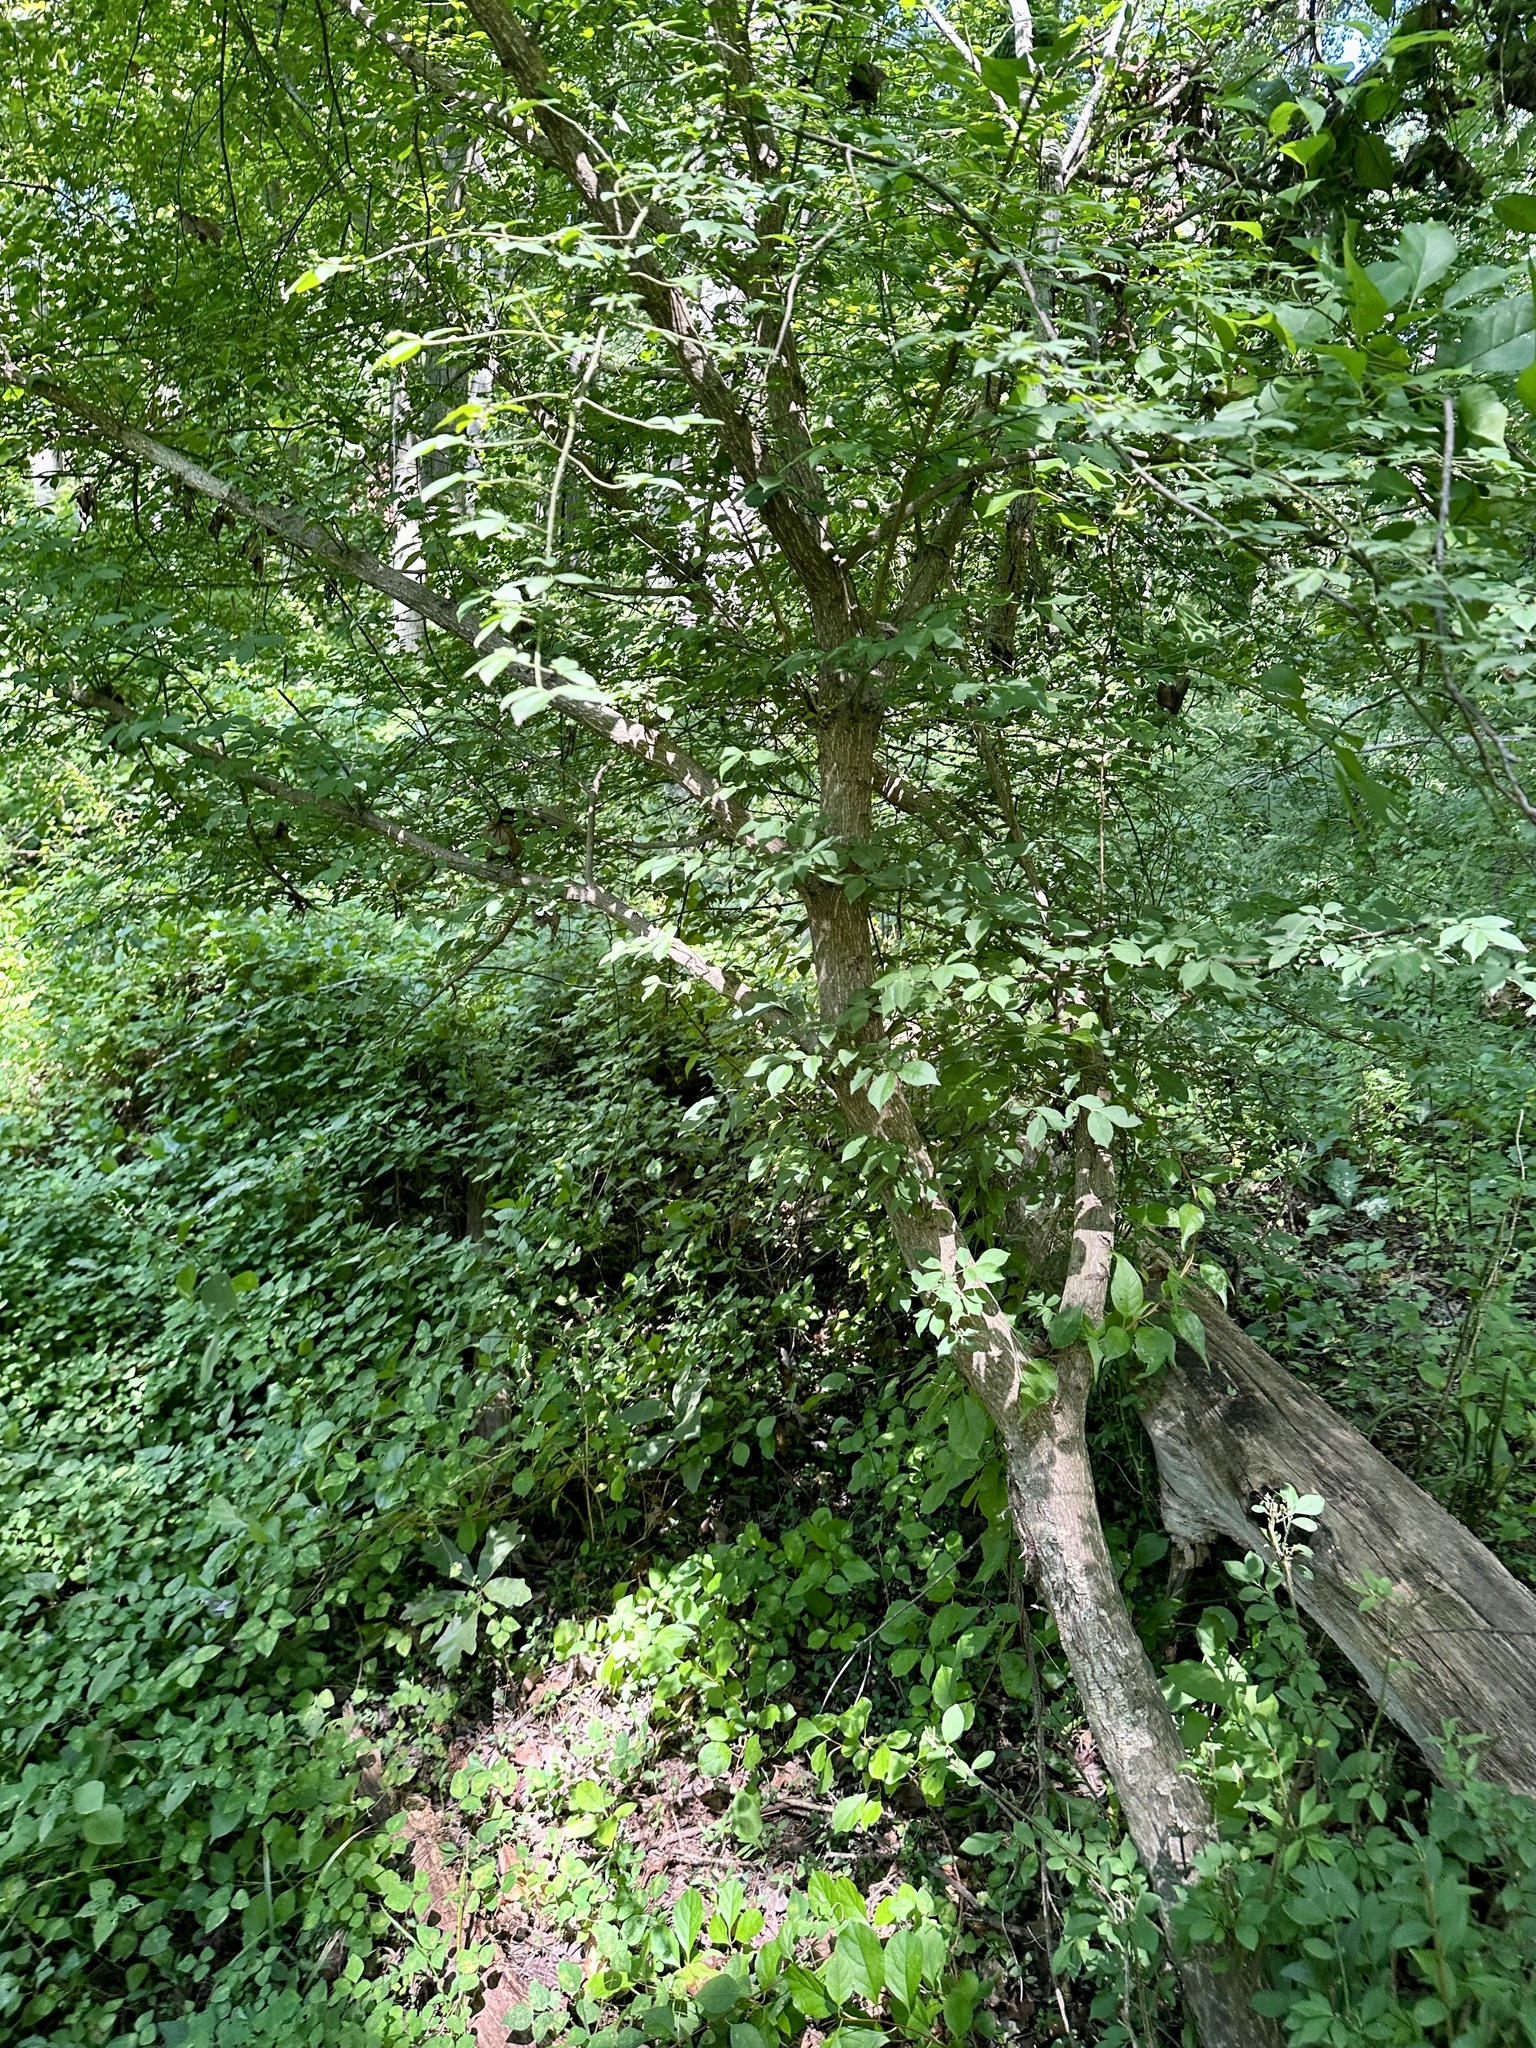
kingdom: Plantae
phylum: Tracheophyta
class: Magnoliopsida
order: Celastrales
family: Celastraceae
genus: Euonymus
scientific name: Euonymus alatus
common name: Winged euonymus
